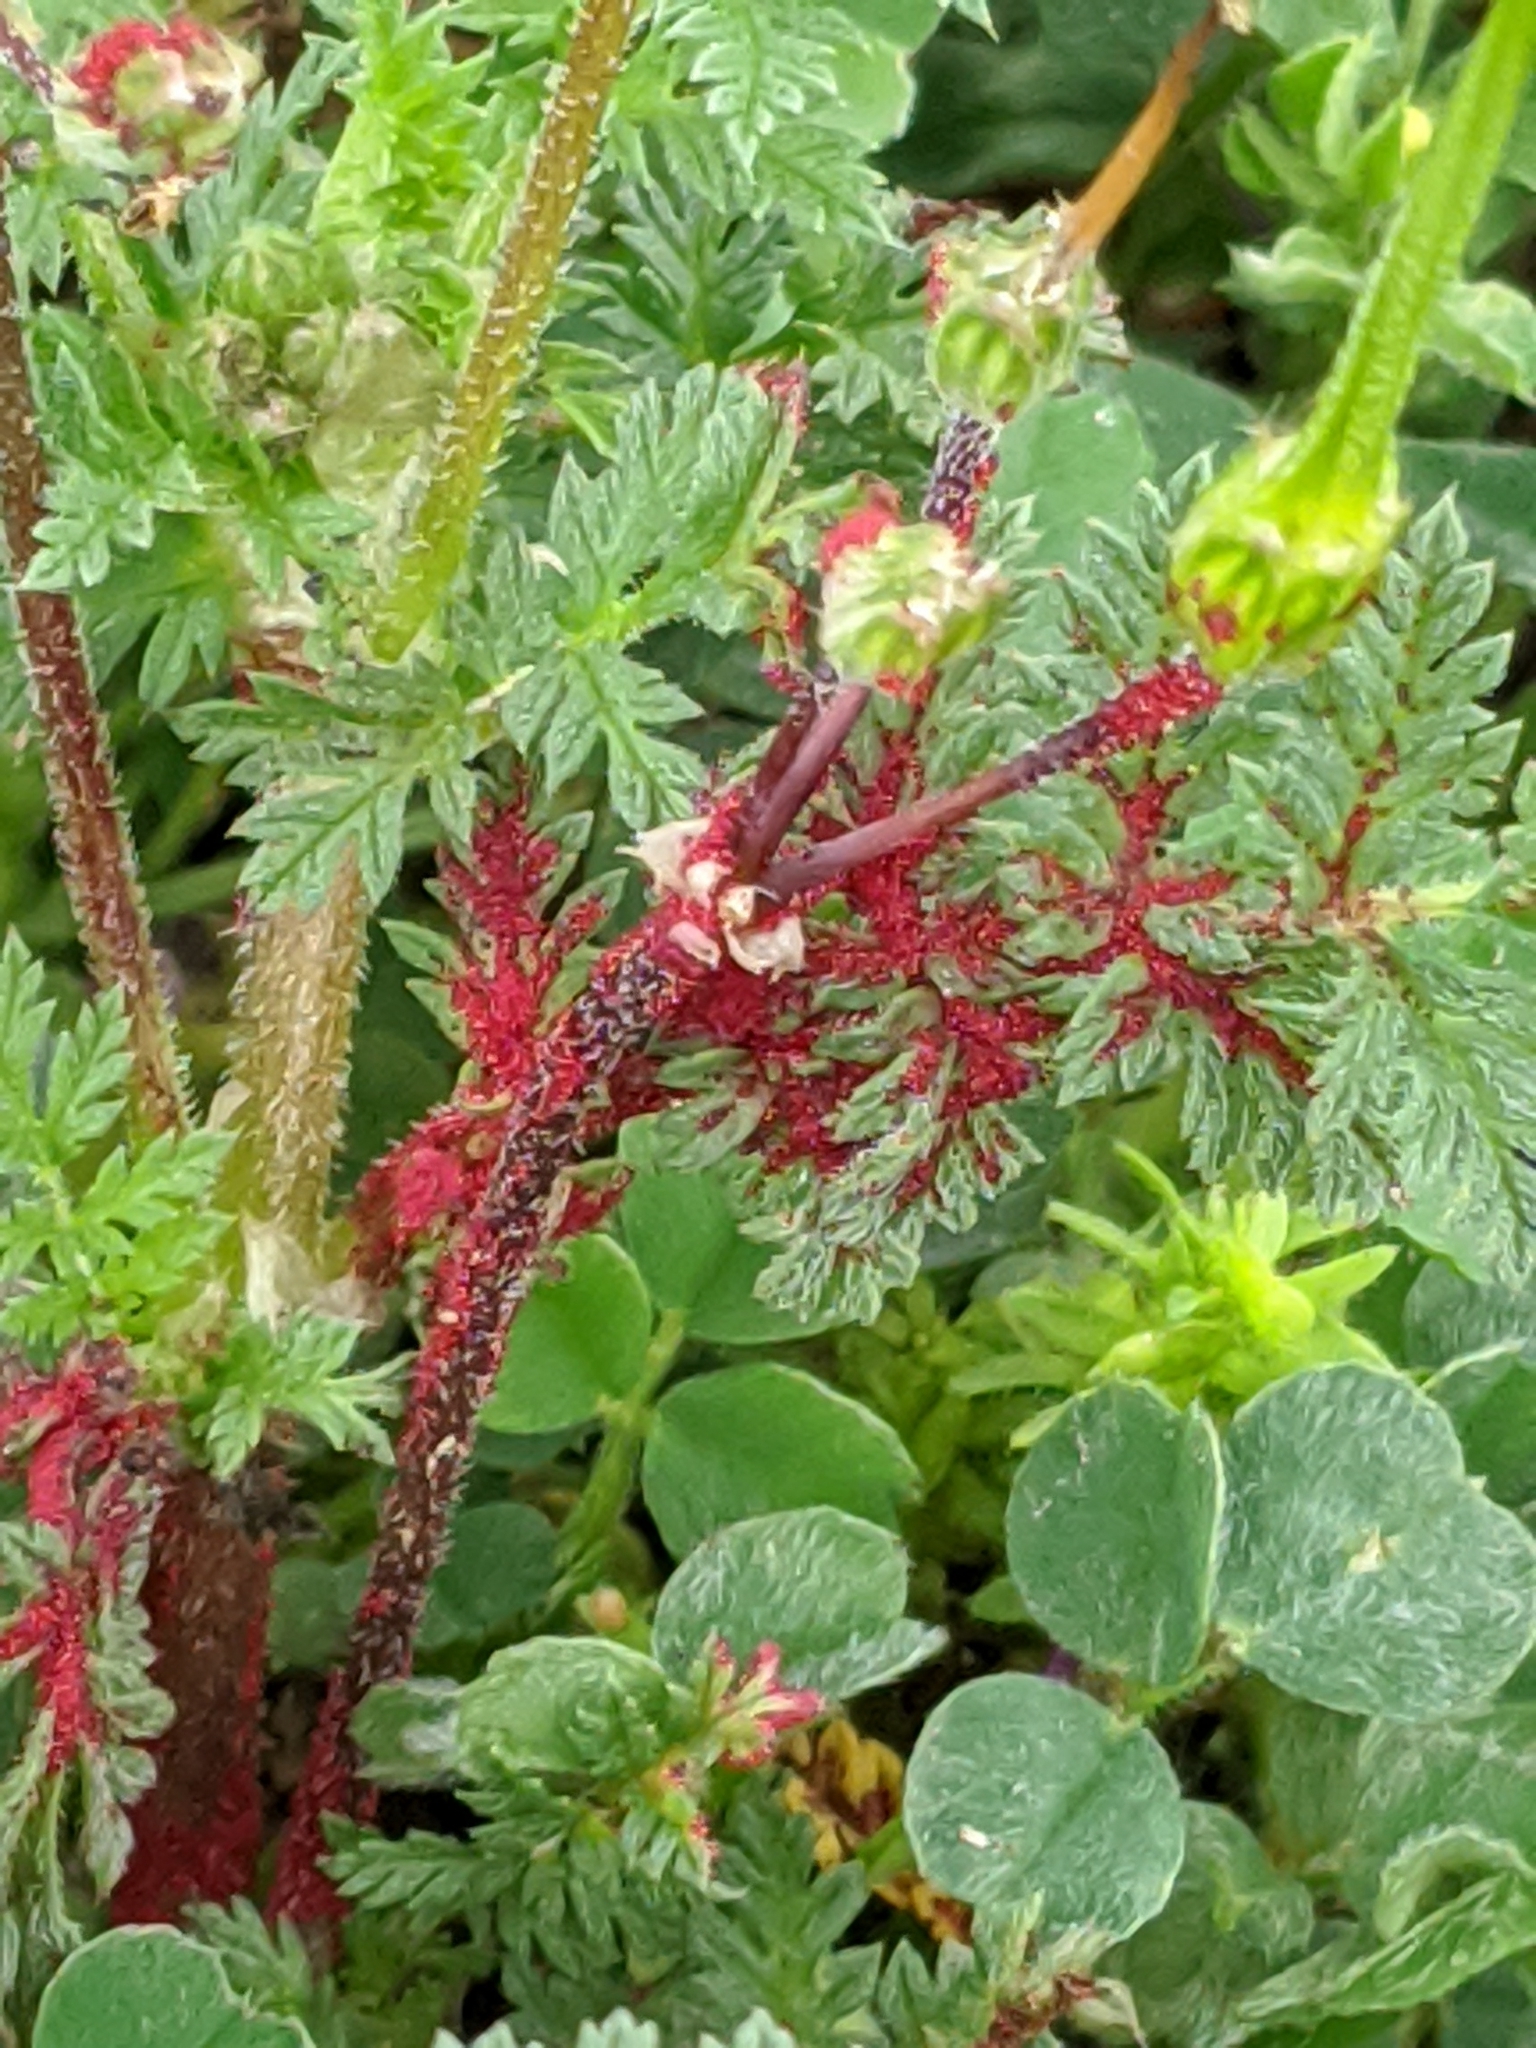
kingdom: Fungi
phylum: Chytridiomycota
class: Chytridiomycetes
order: Chytridiales
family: Synchytriaceae
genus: Synchytrium
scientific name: Synchytrium papillatum
